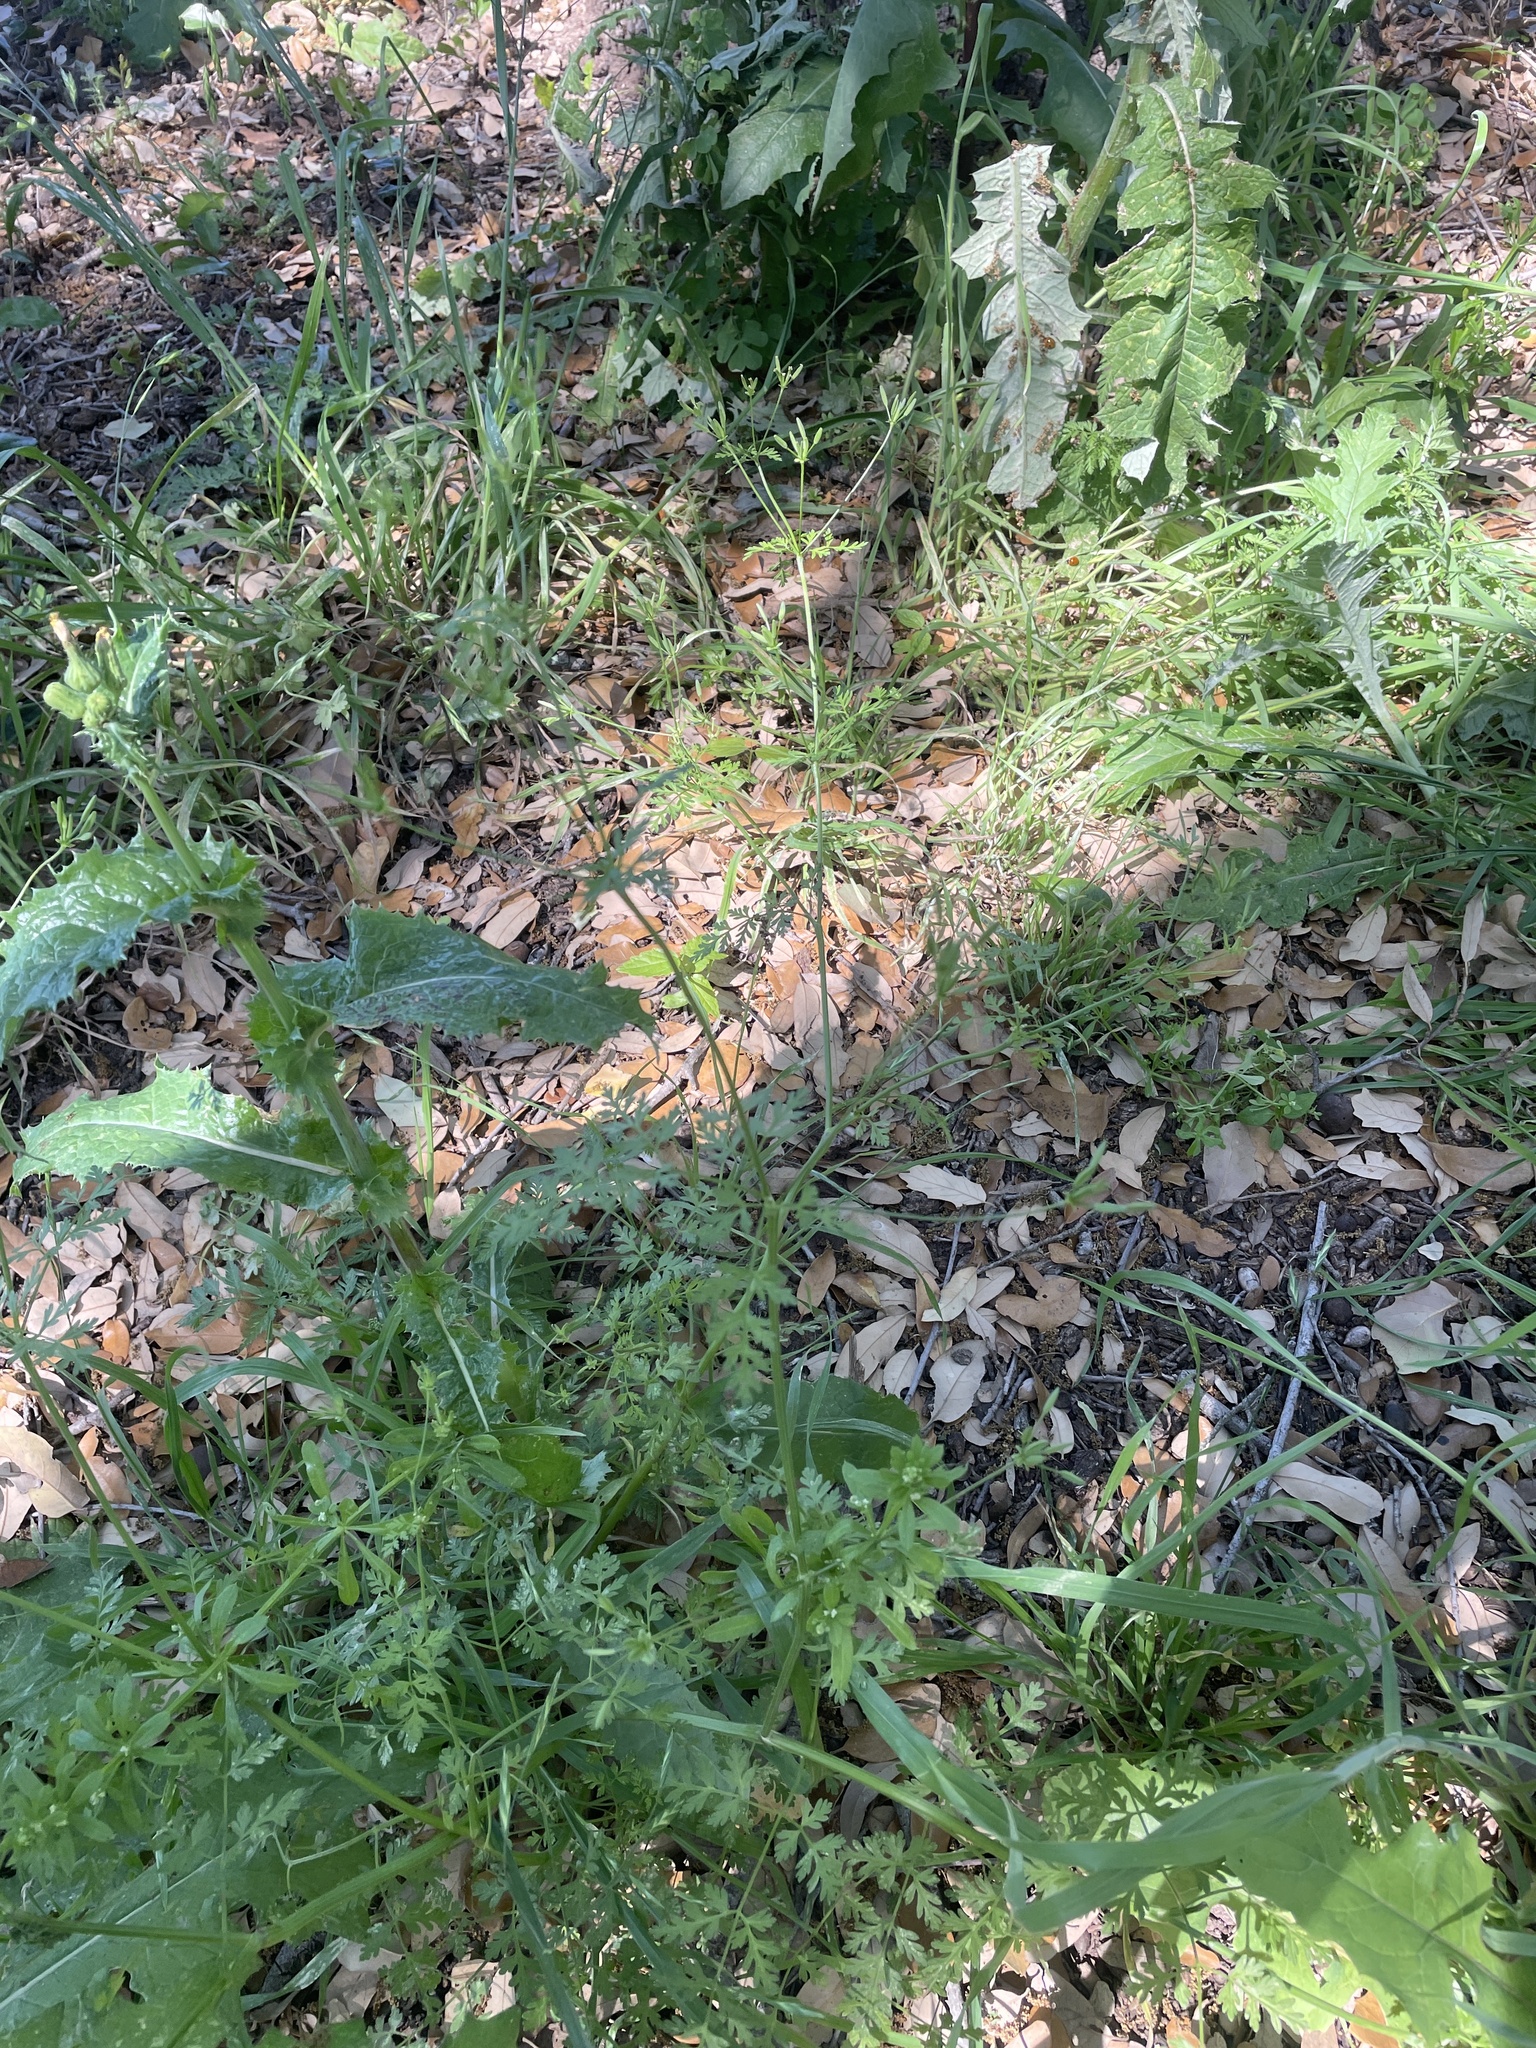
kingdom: Plantae
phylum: Tracheophyta
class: Magnoliopsida
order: Apiales
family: Apiaceae
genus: Chaerophyllum
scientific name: Chaerophyllum tainturieri
